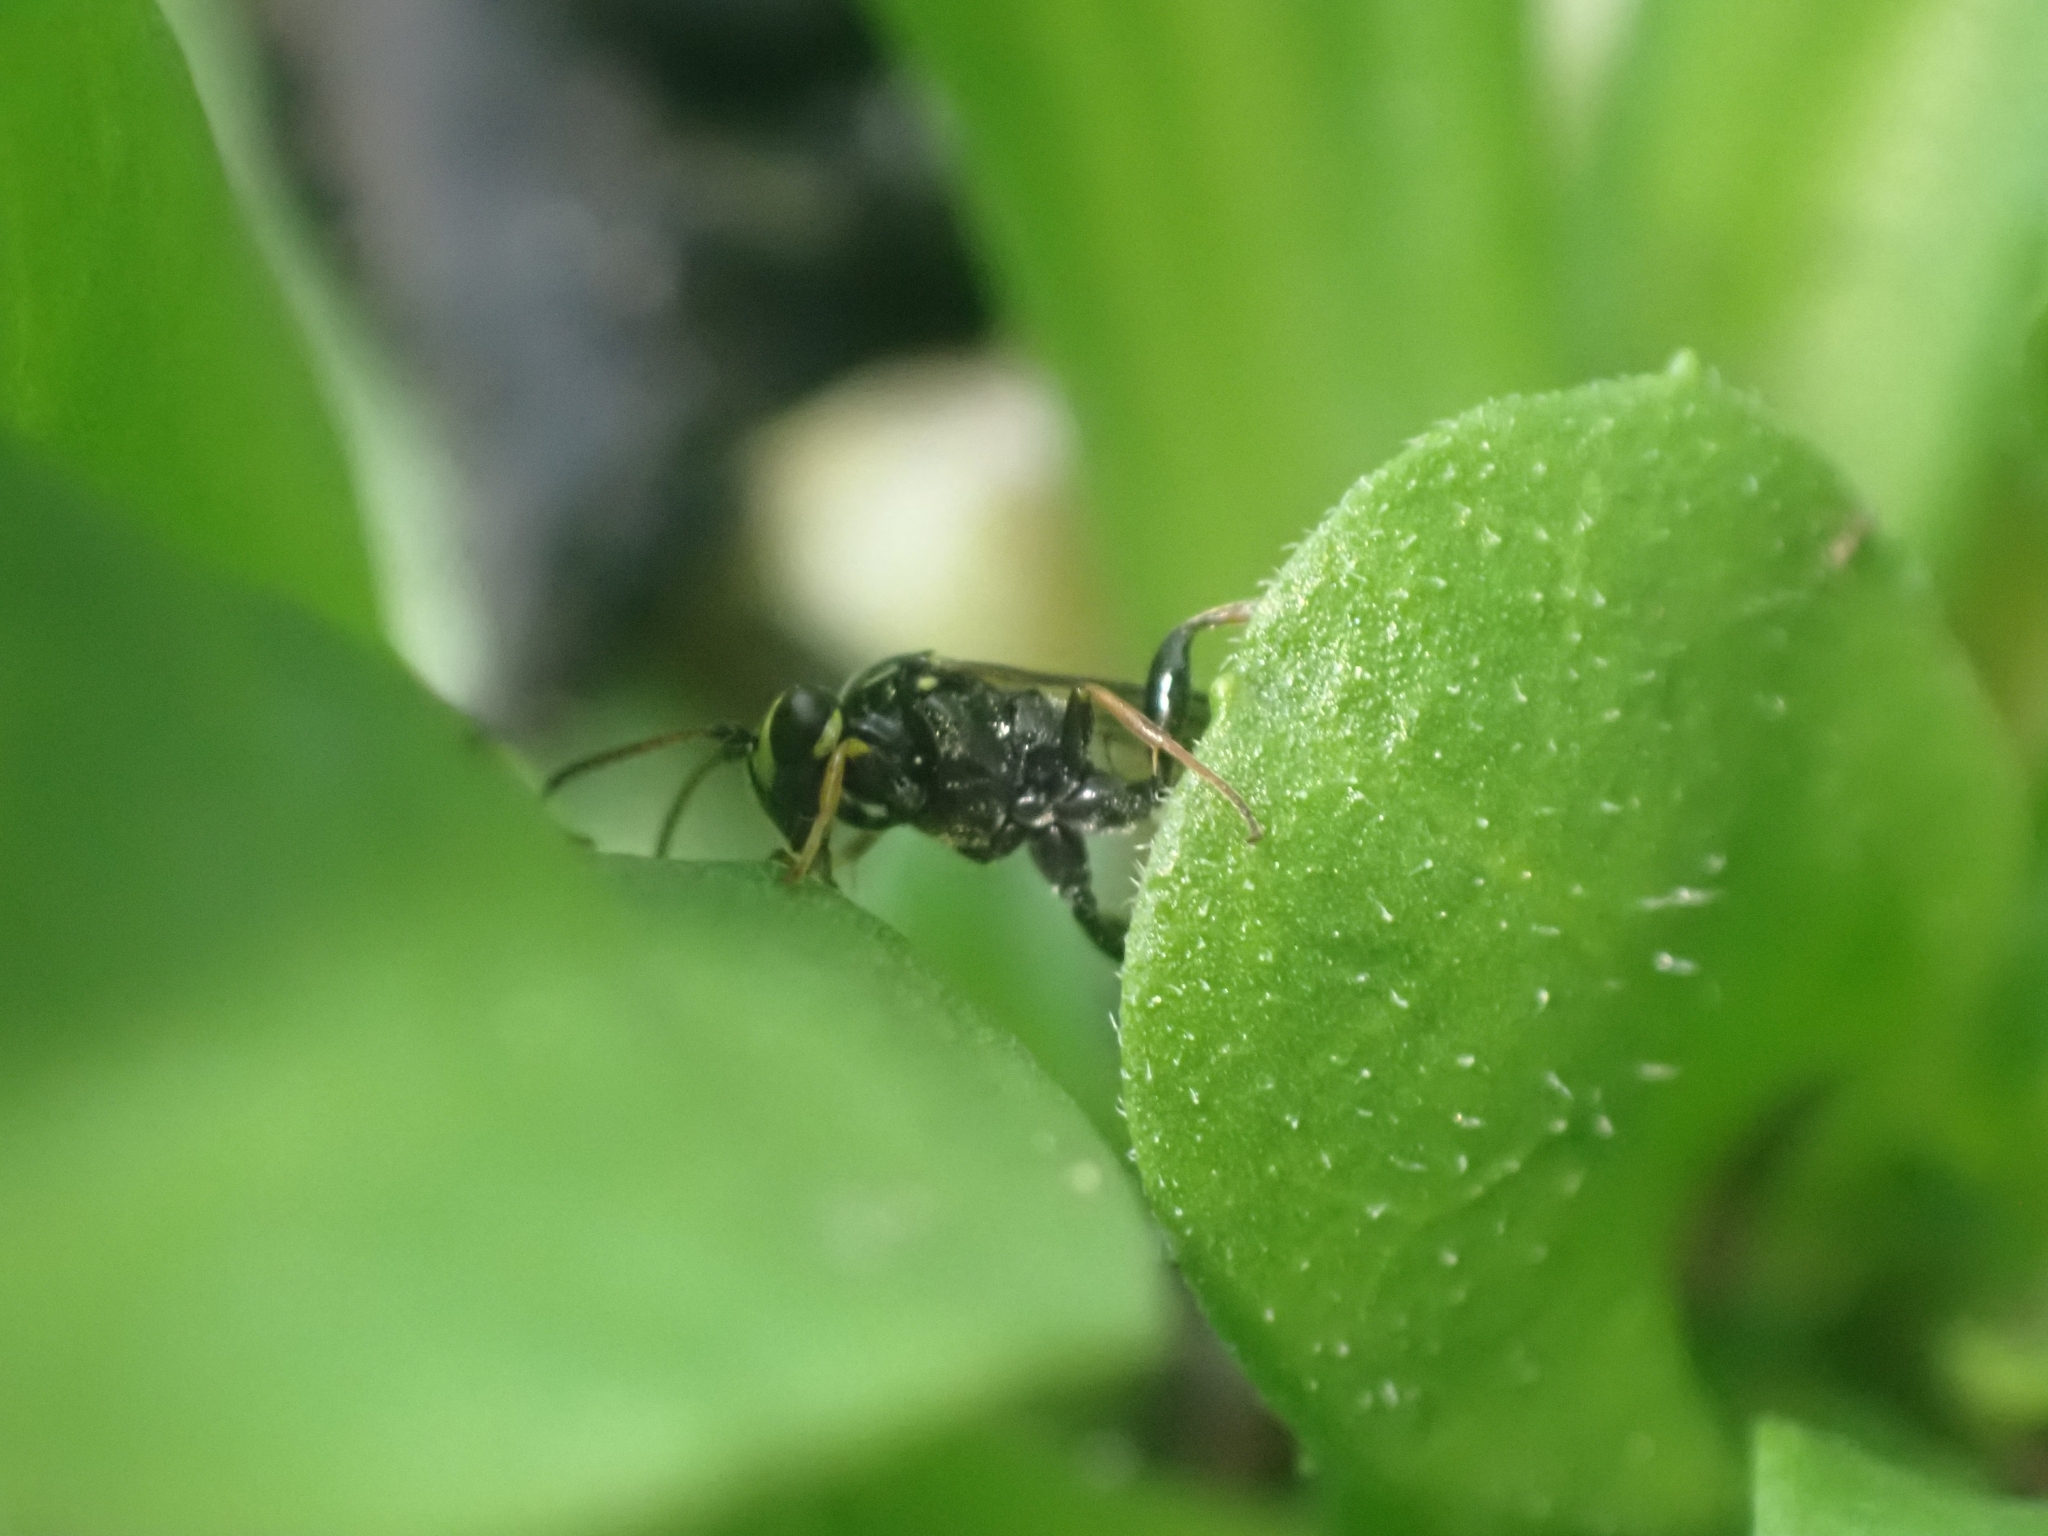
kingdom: Animalia
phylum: Arthropoda
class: Insecta
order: Hymenoptera
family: Ichneumonidae
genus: Listrodromus
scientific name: Listrodromus nycthemerus
